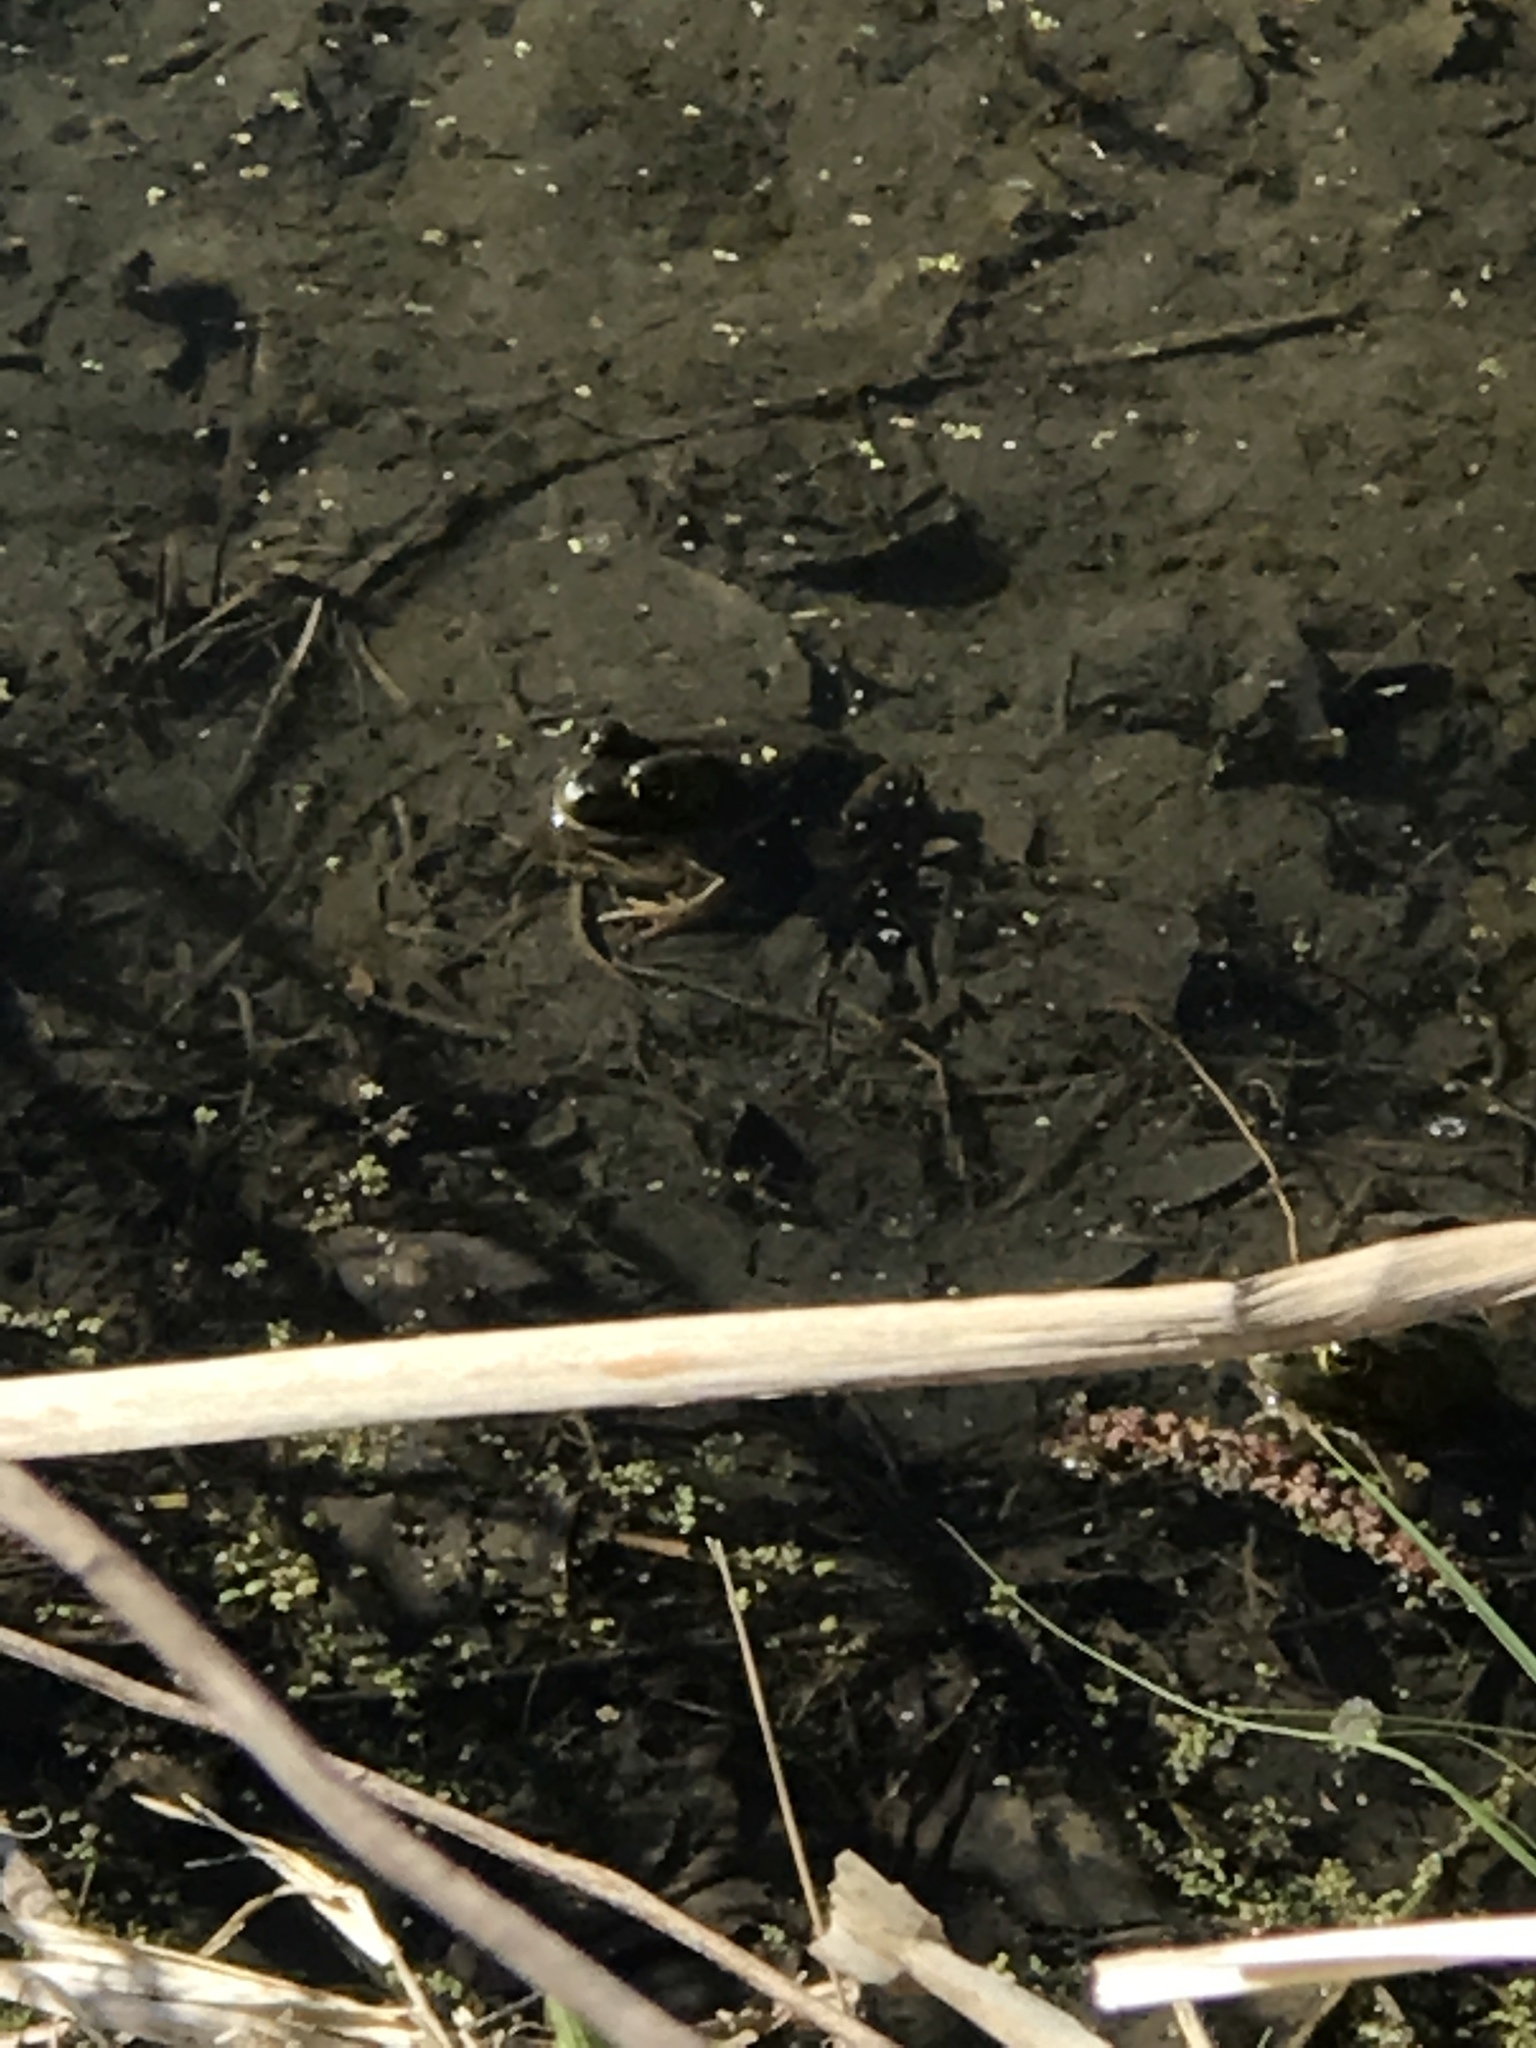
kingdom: Animalia
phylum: Chordata
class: Amphibia
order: Anura
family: Ranidae
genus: Lithobates
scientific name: Lithobates catesbeianus
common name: American bullfrog
